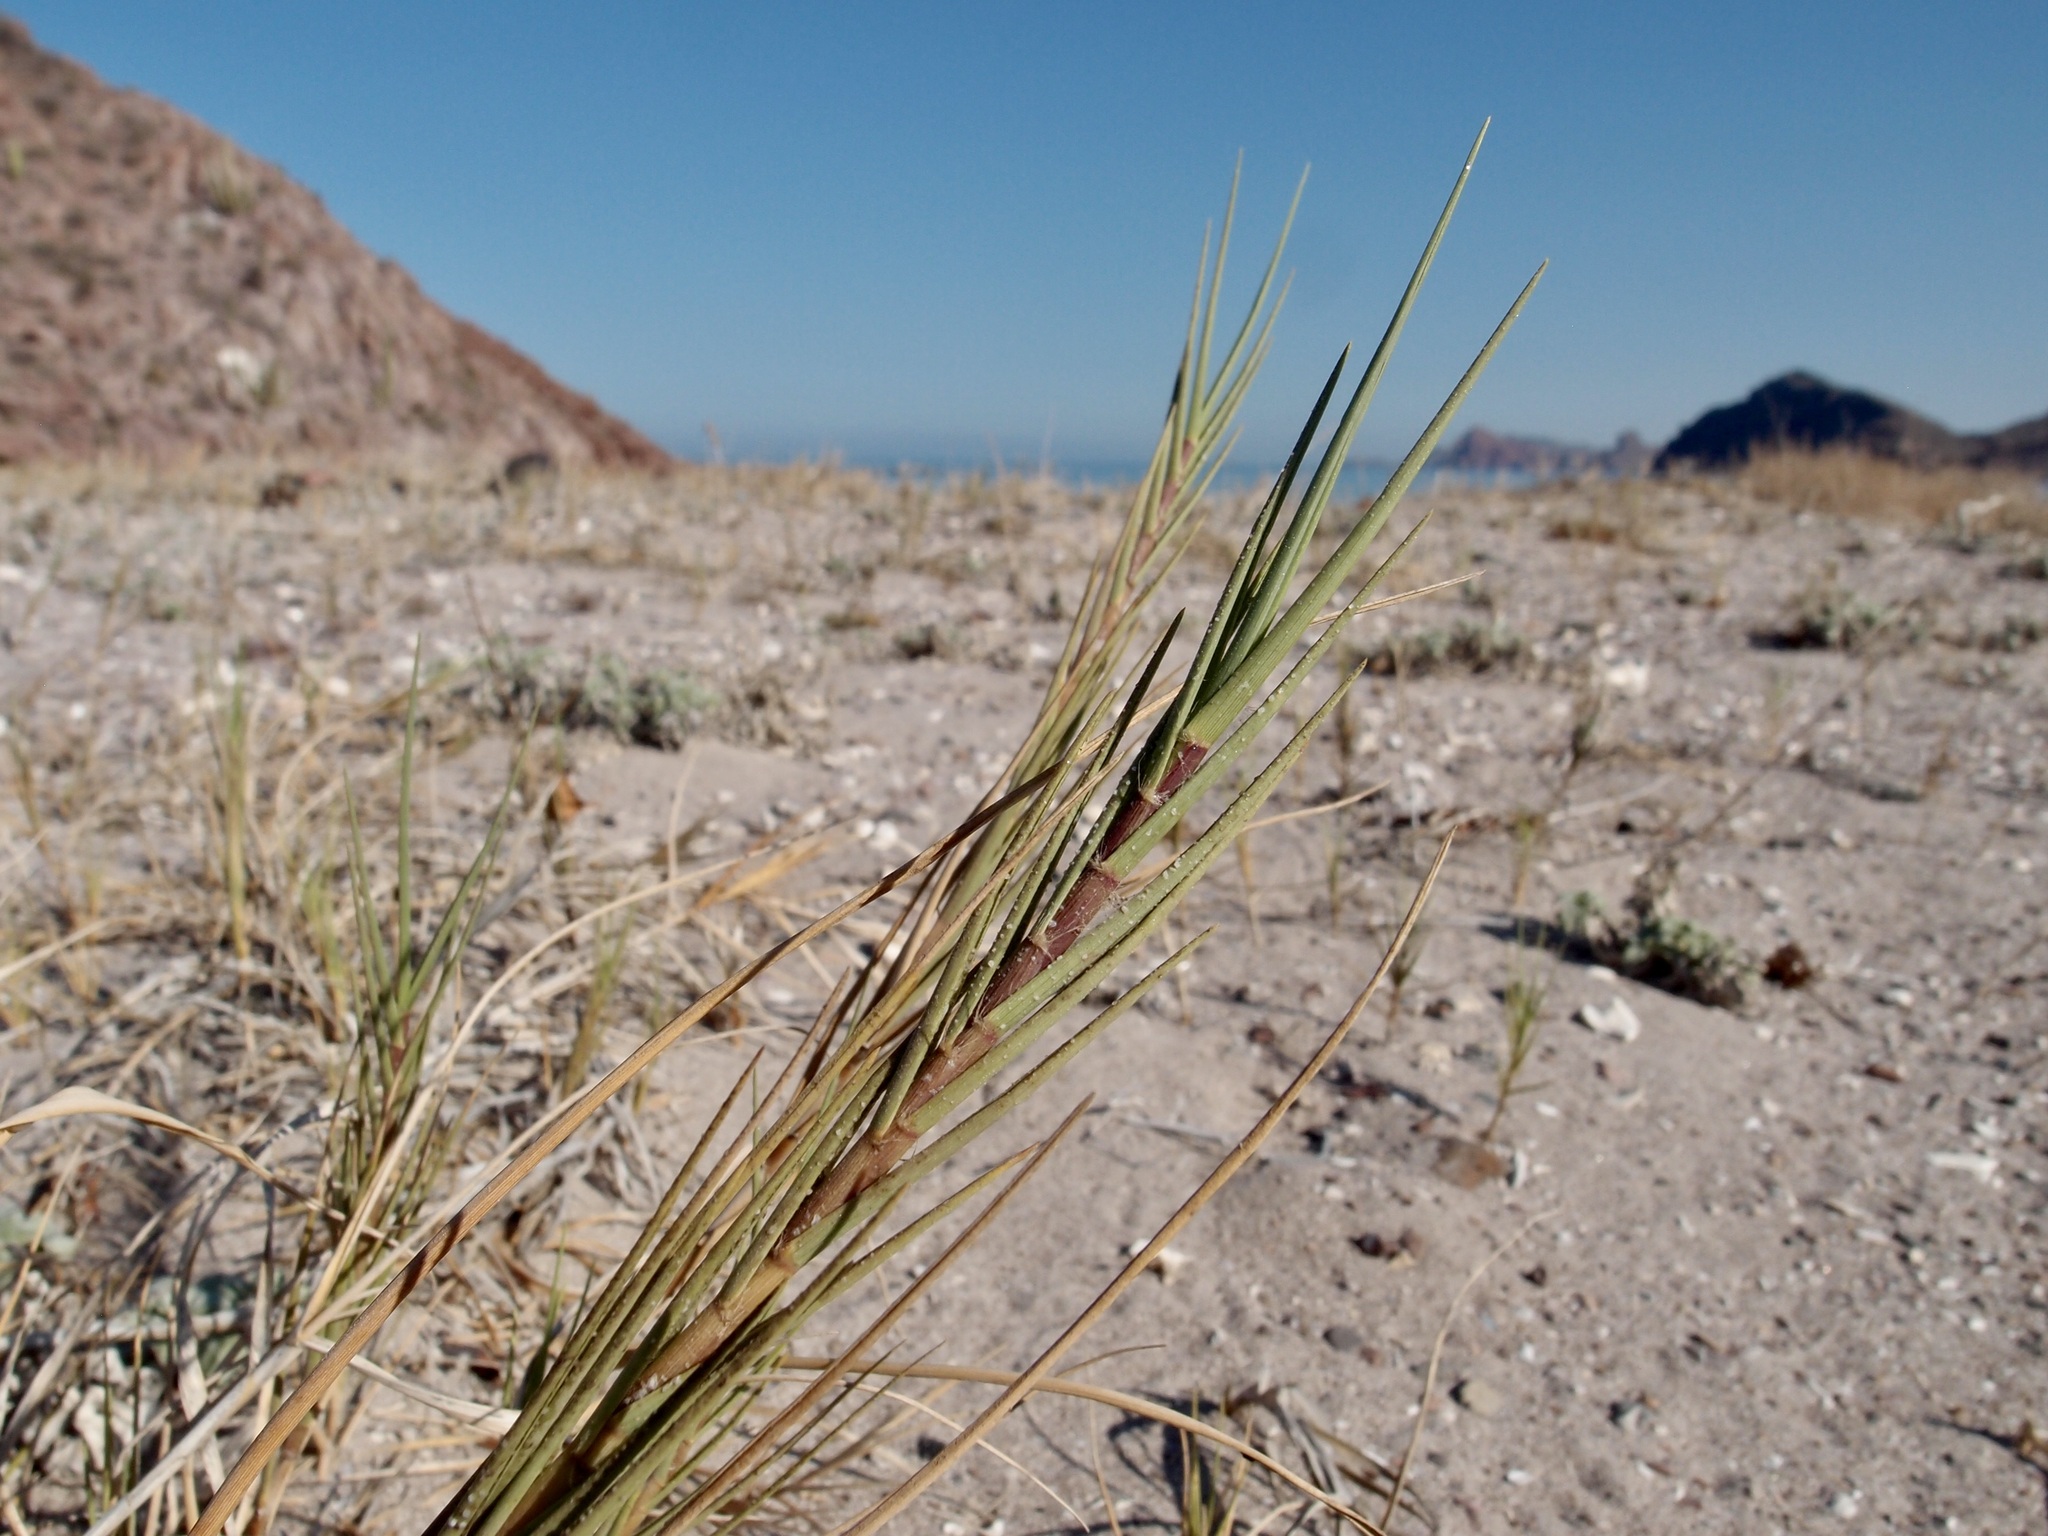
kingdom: Plantae
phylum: Tracheophyta
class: Liliopsida
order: Poales
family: Poaceae
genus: Sporobolus
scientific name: Sporobolus virginicus
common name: Beach dropseed
